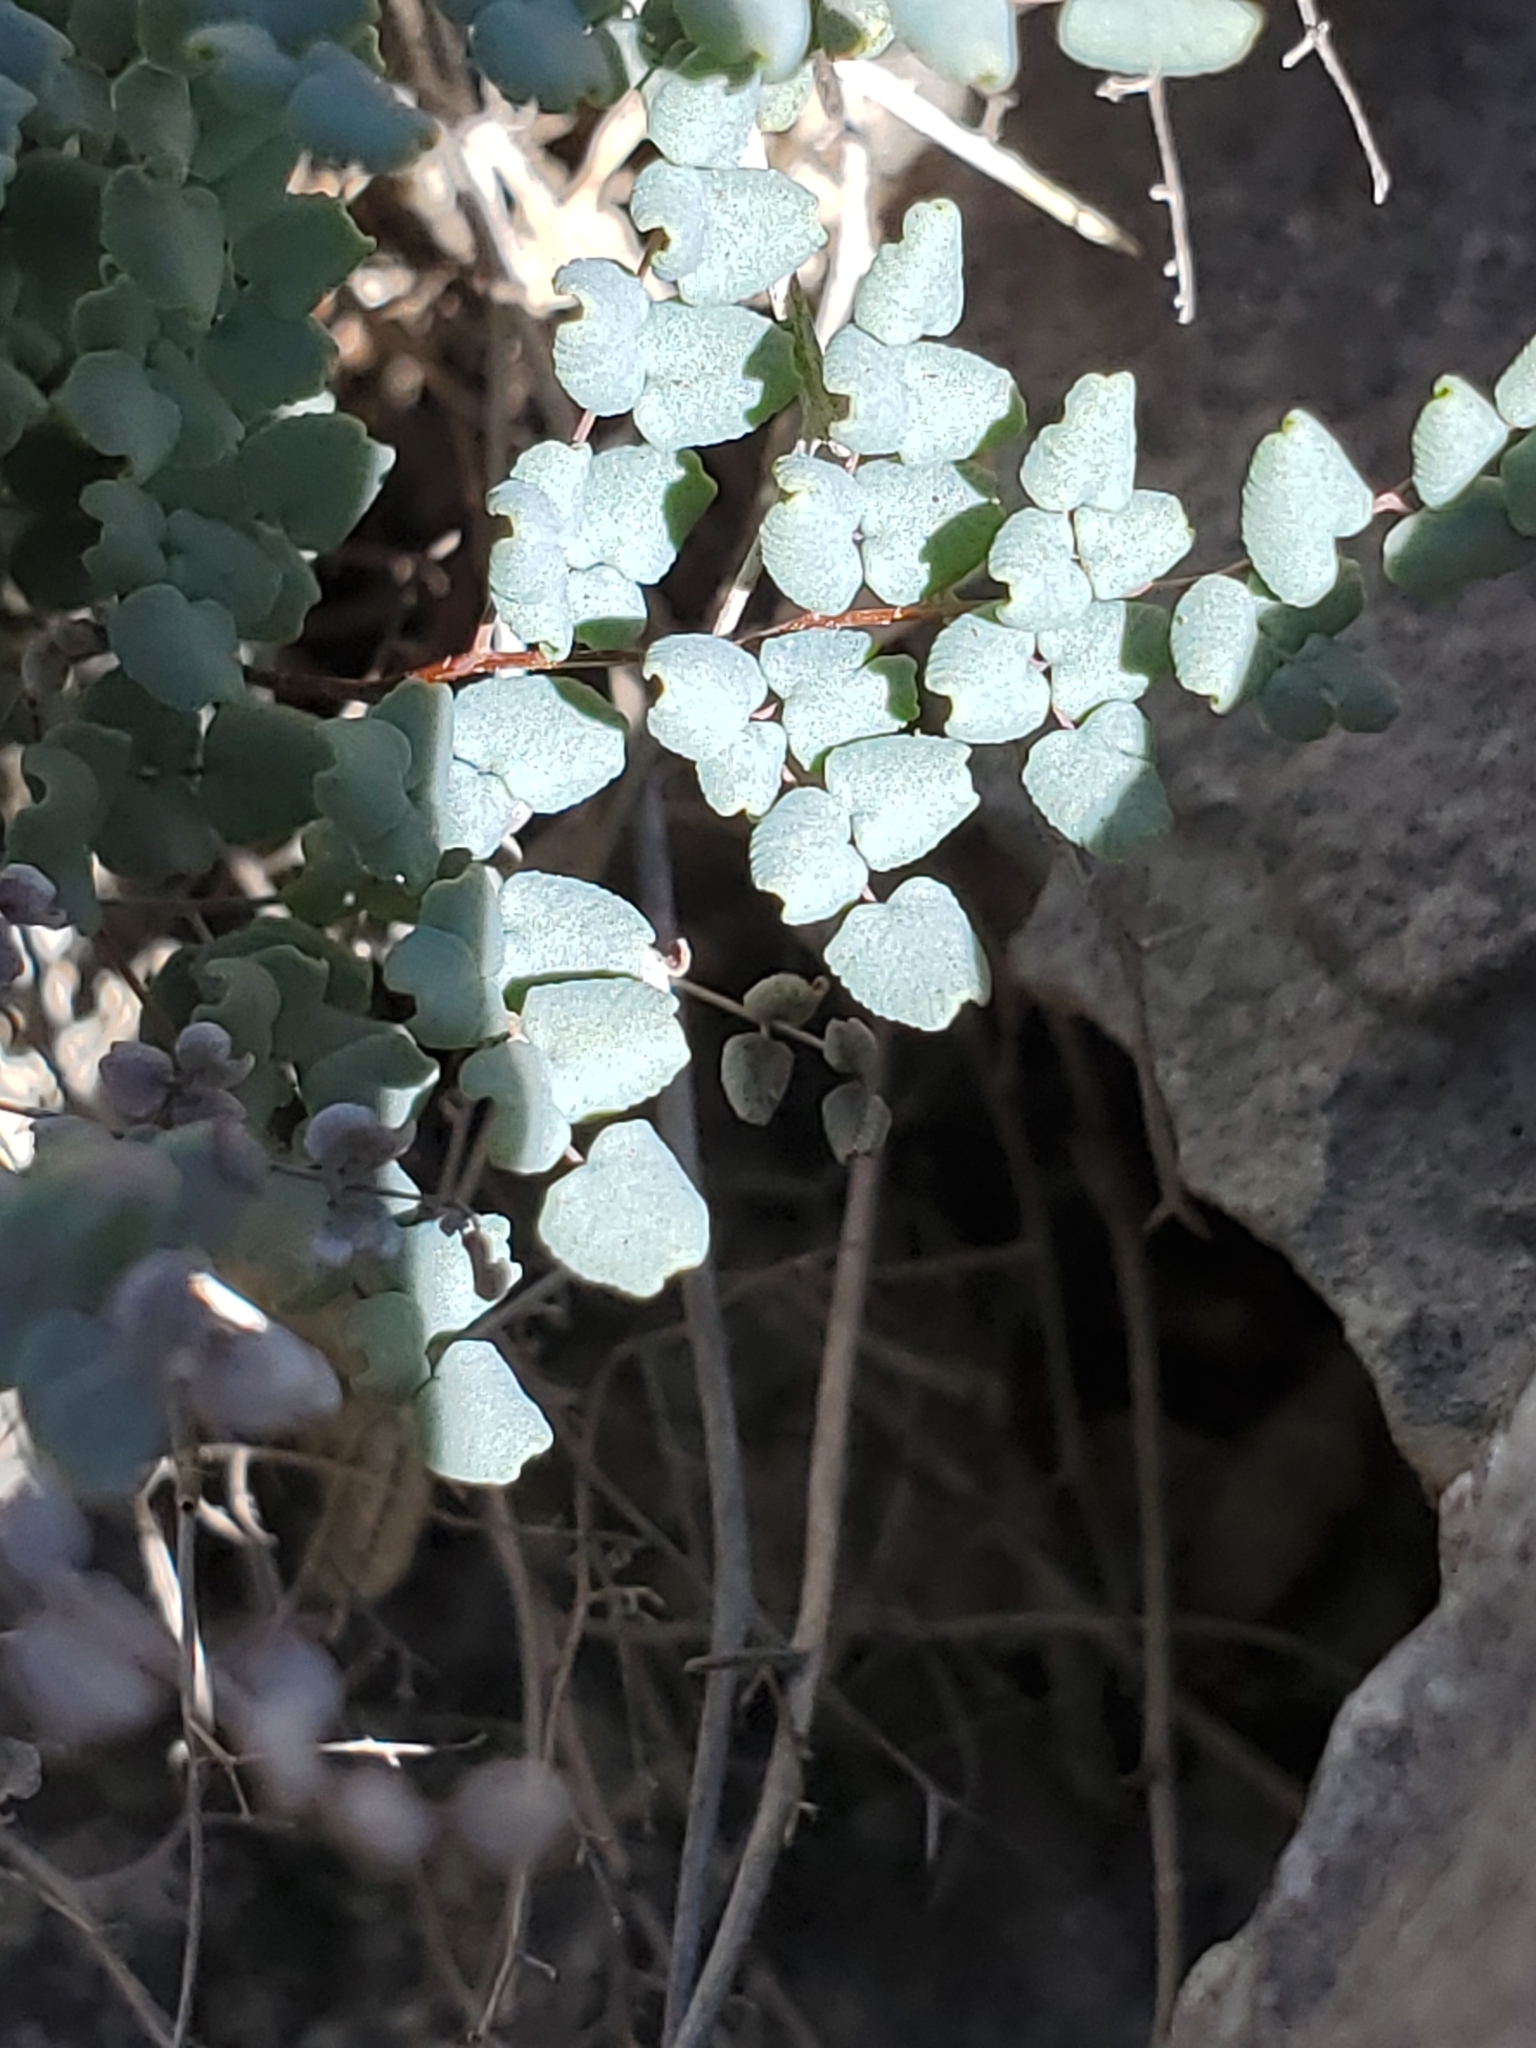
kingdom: Plantae
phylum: Tracheophyta
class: Polypodiopsida
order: Polypodiales
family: Pteridaceae
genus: Argyrochosma
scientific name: Argyrochosma microphylla
